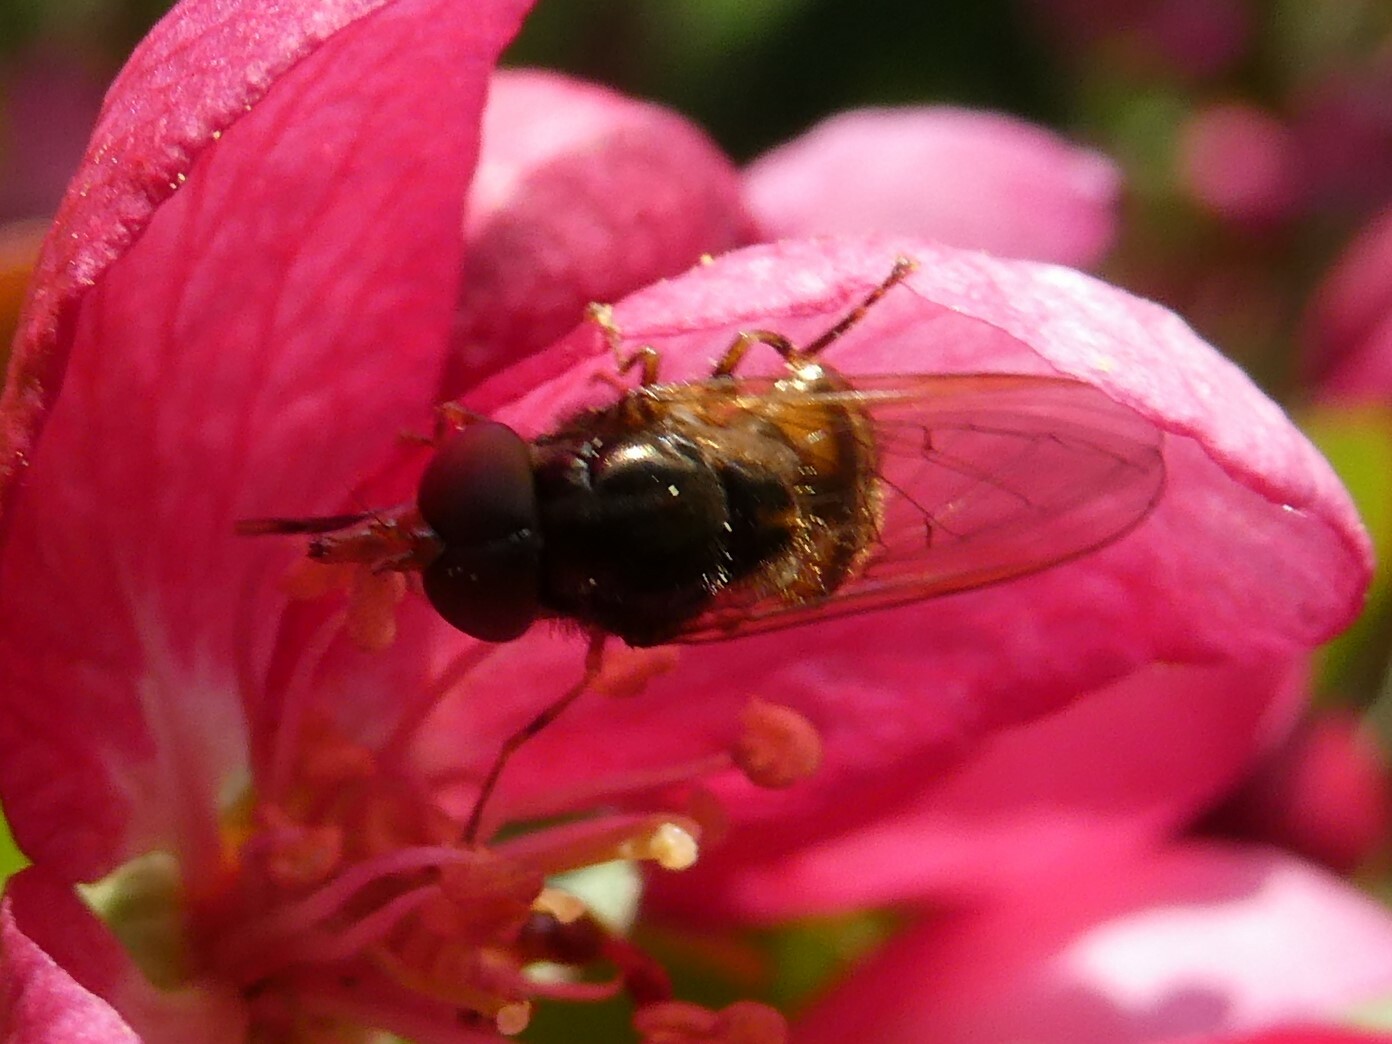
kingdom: Animalia
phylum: Arthropoda
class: Insecta
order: Diptera
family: Syrphidae
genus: Rhingia
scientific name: Rhingia nasica
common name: American snout fly
